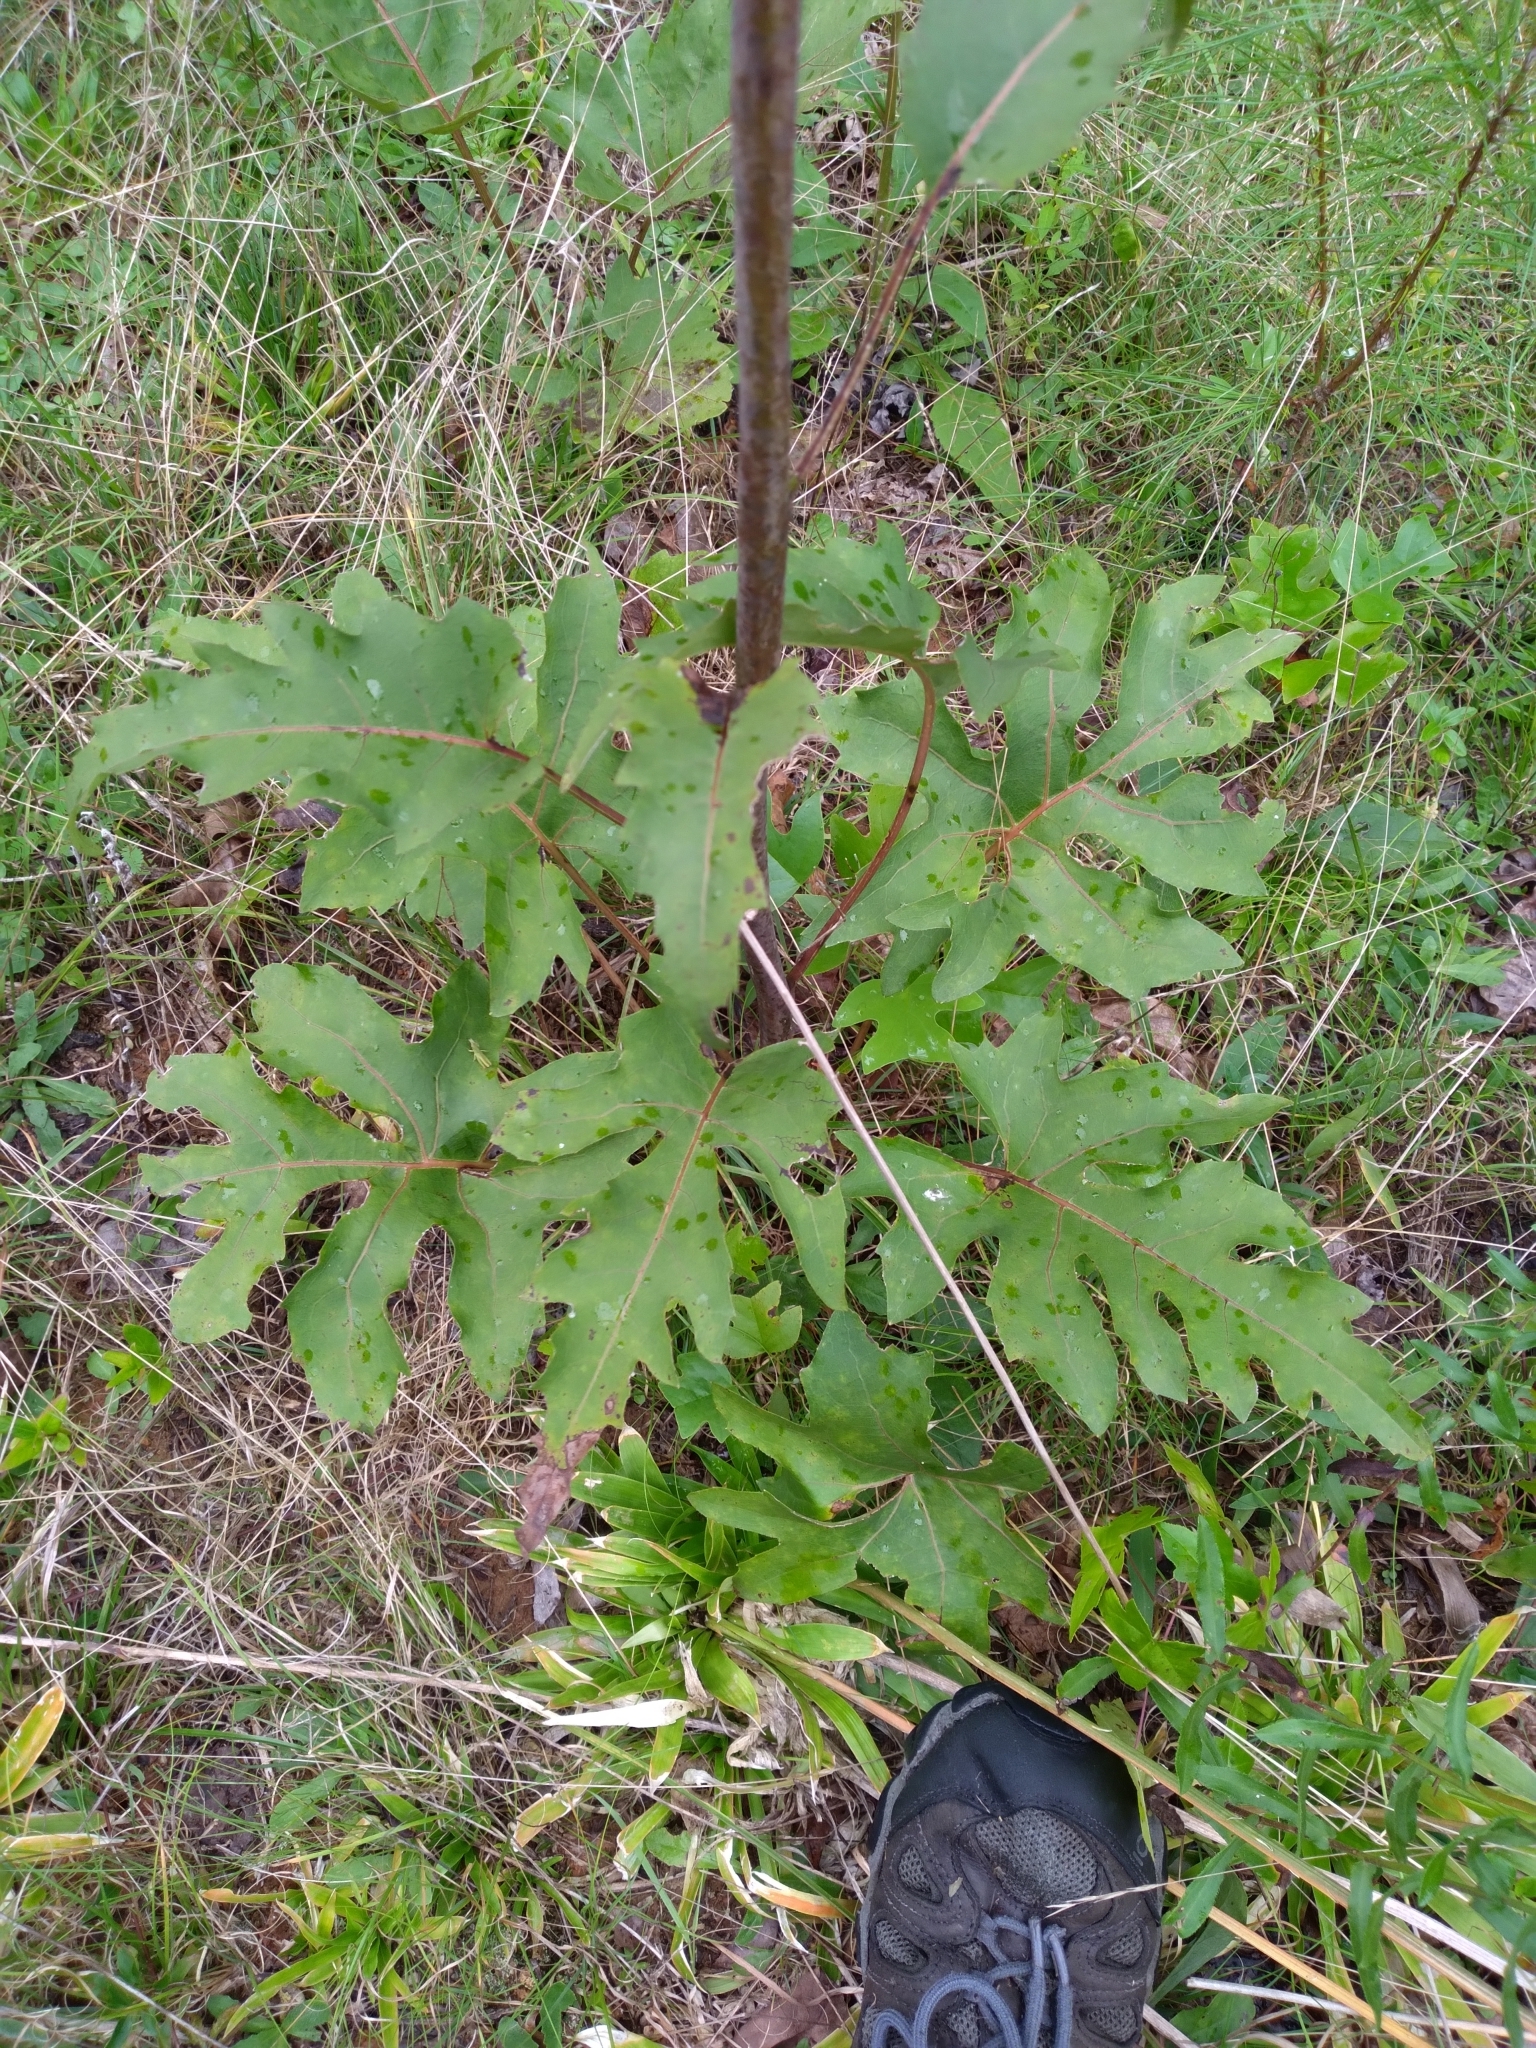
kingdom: Plantae
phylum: Tracheophyta
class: Magnoliopsida
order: Asterales
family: Asteraceae
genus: Silphium
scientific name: Silphium compositum
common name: Lesser basal-leaf rosinweed
